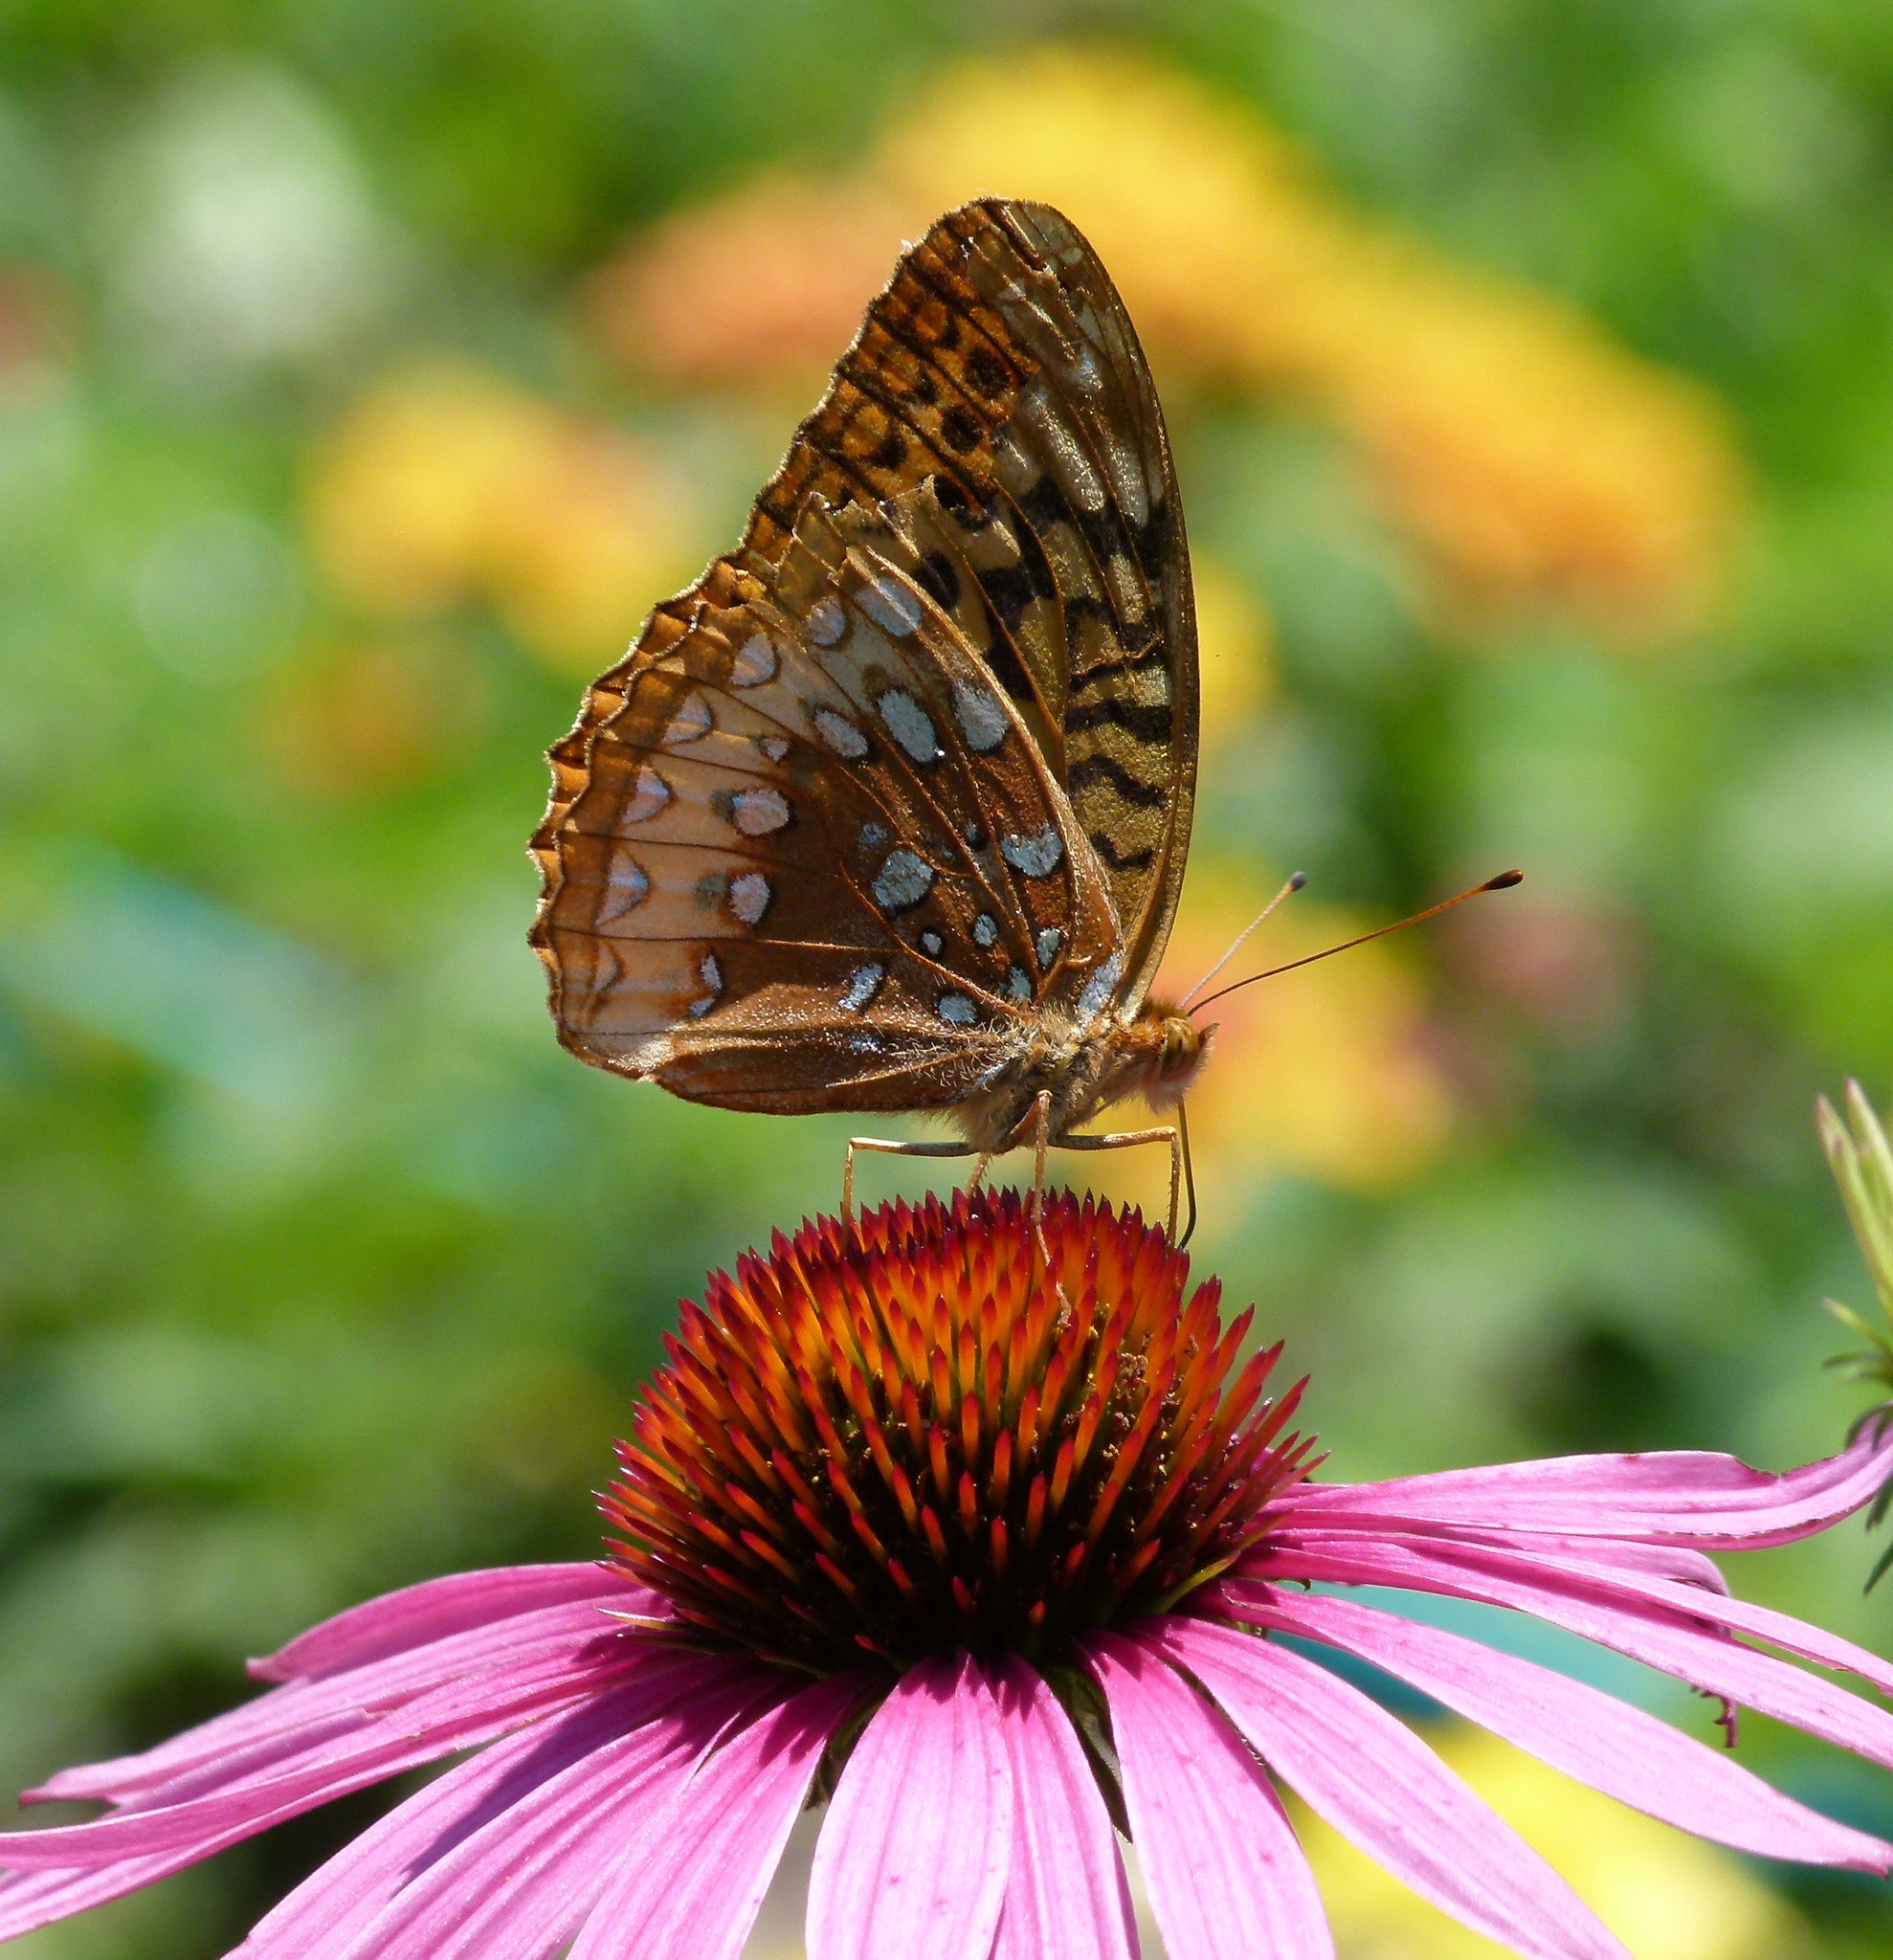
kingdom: Animalia
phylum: Arthropoda
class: Insecta
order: Lepidoptera
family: Nymphalidae
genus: Speyeria
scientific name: Speyeria cybele
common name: Great spangled fritillary
